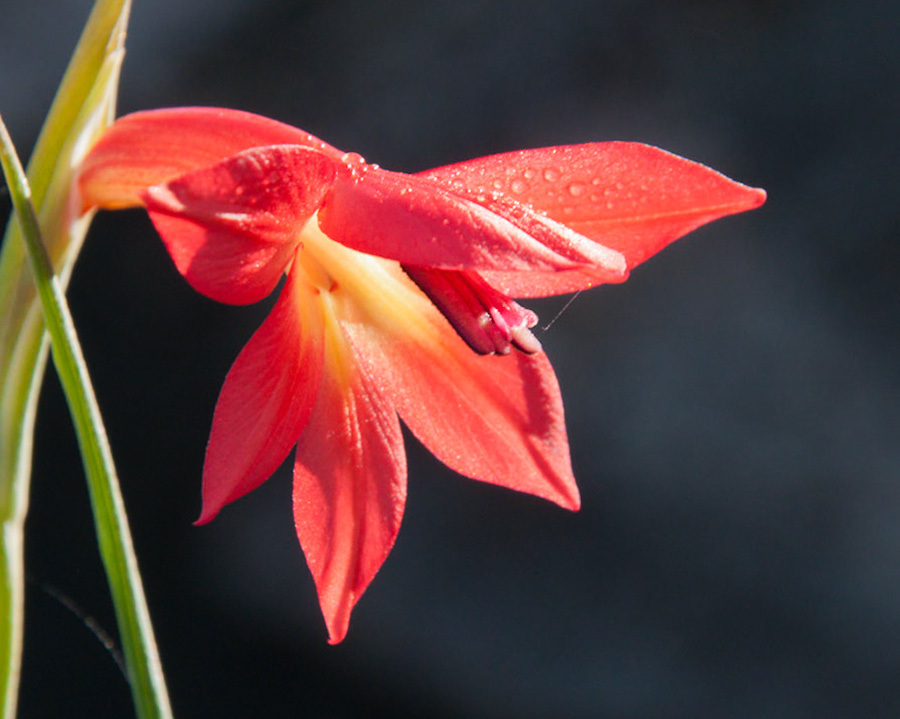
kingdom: Plantae
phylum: Tracheophyta
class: Liliopsida
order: Asparagales
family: Iridaceae
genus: Gladiolus
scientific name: Gladiolus priorii
